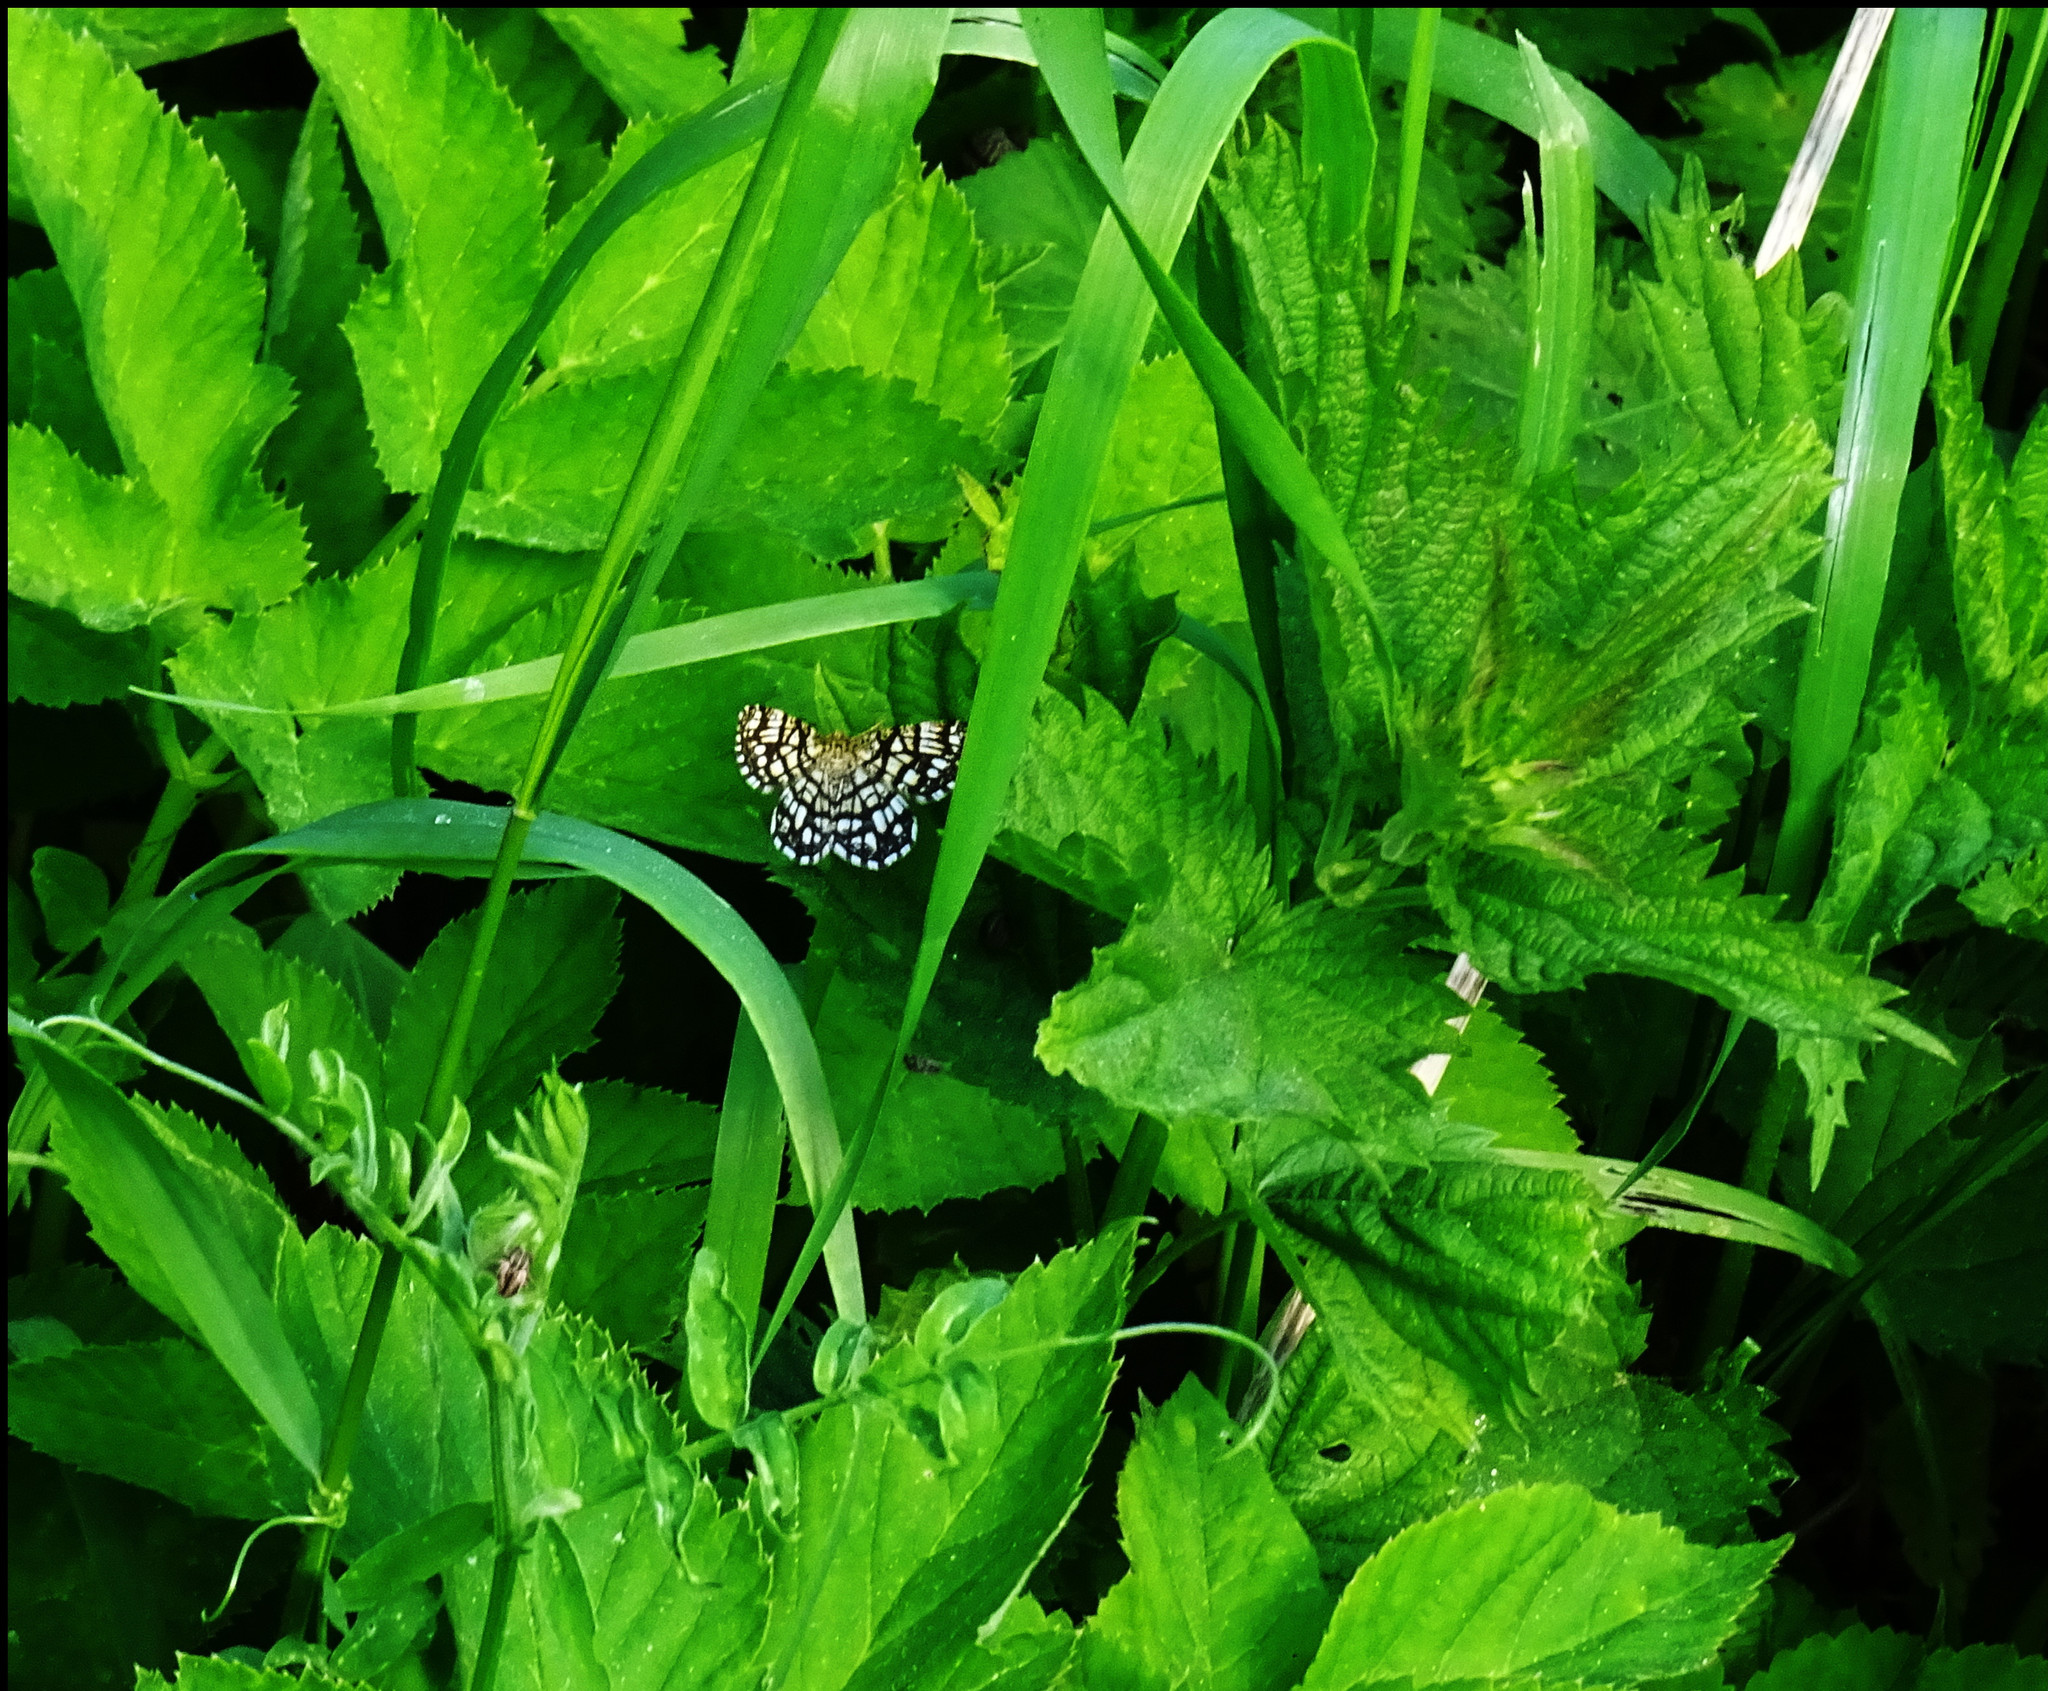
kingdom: Animalia
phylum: Arthropoda
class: Insecta
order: Lepidoptera
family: Geometridae
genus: Chiasmia
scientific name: Chiasmia clathrata
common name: Latticed heath
